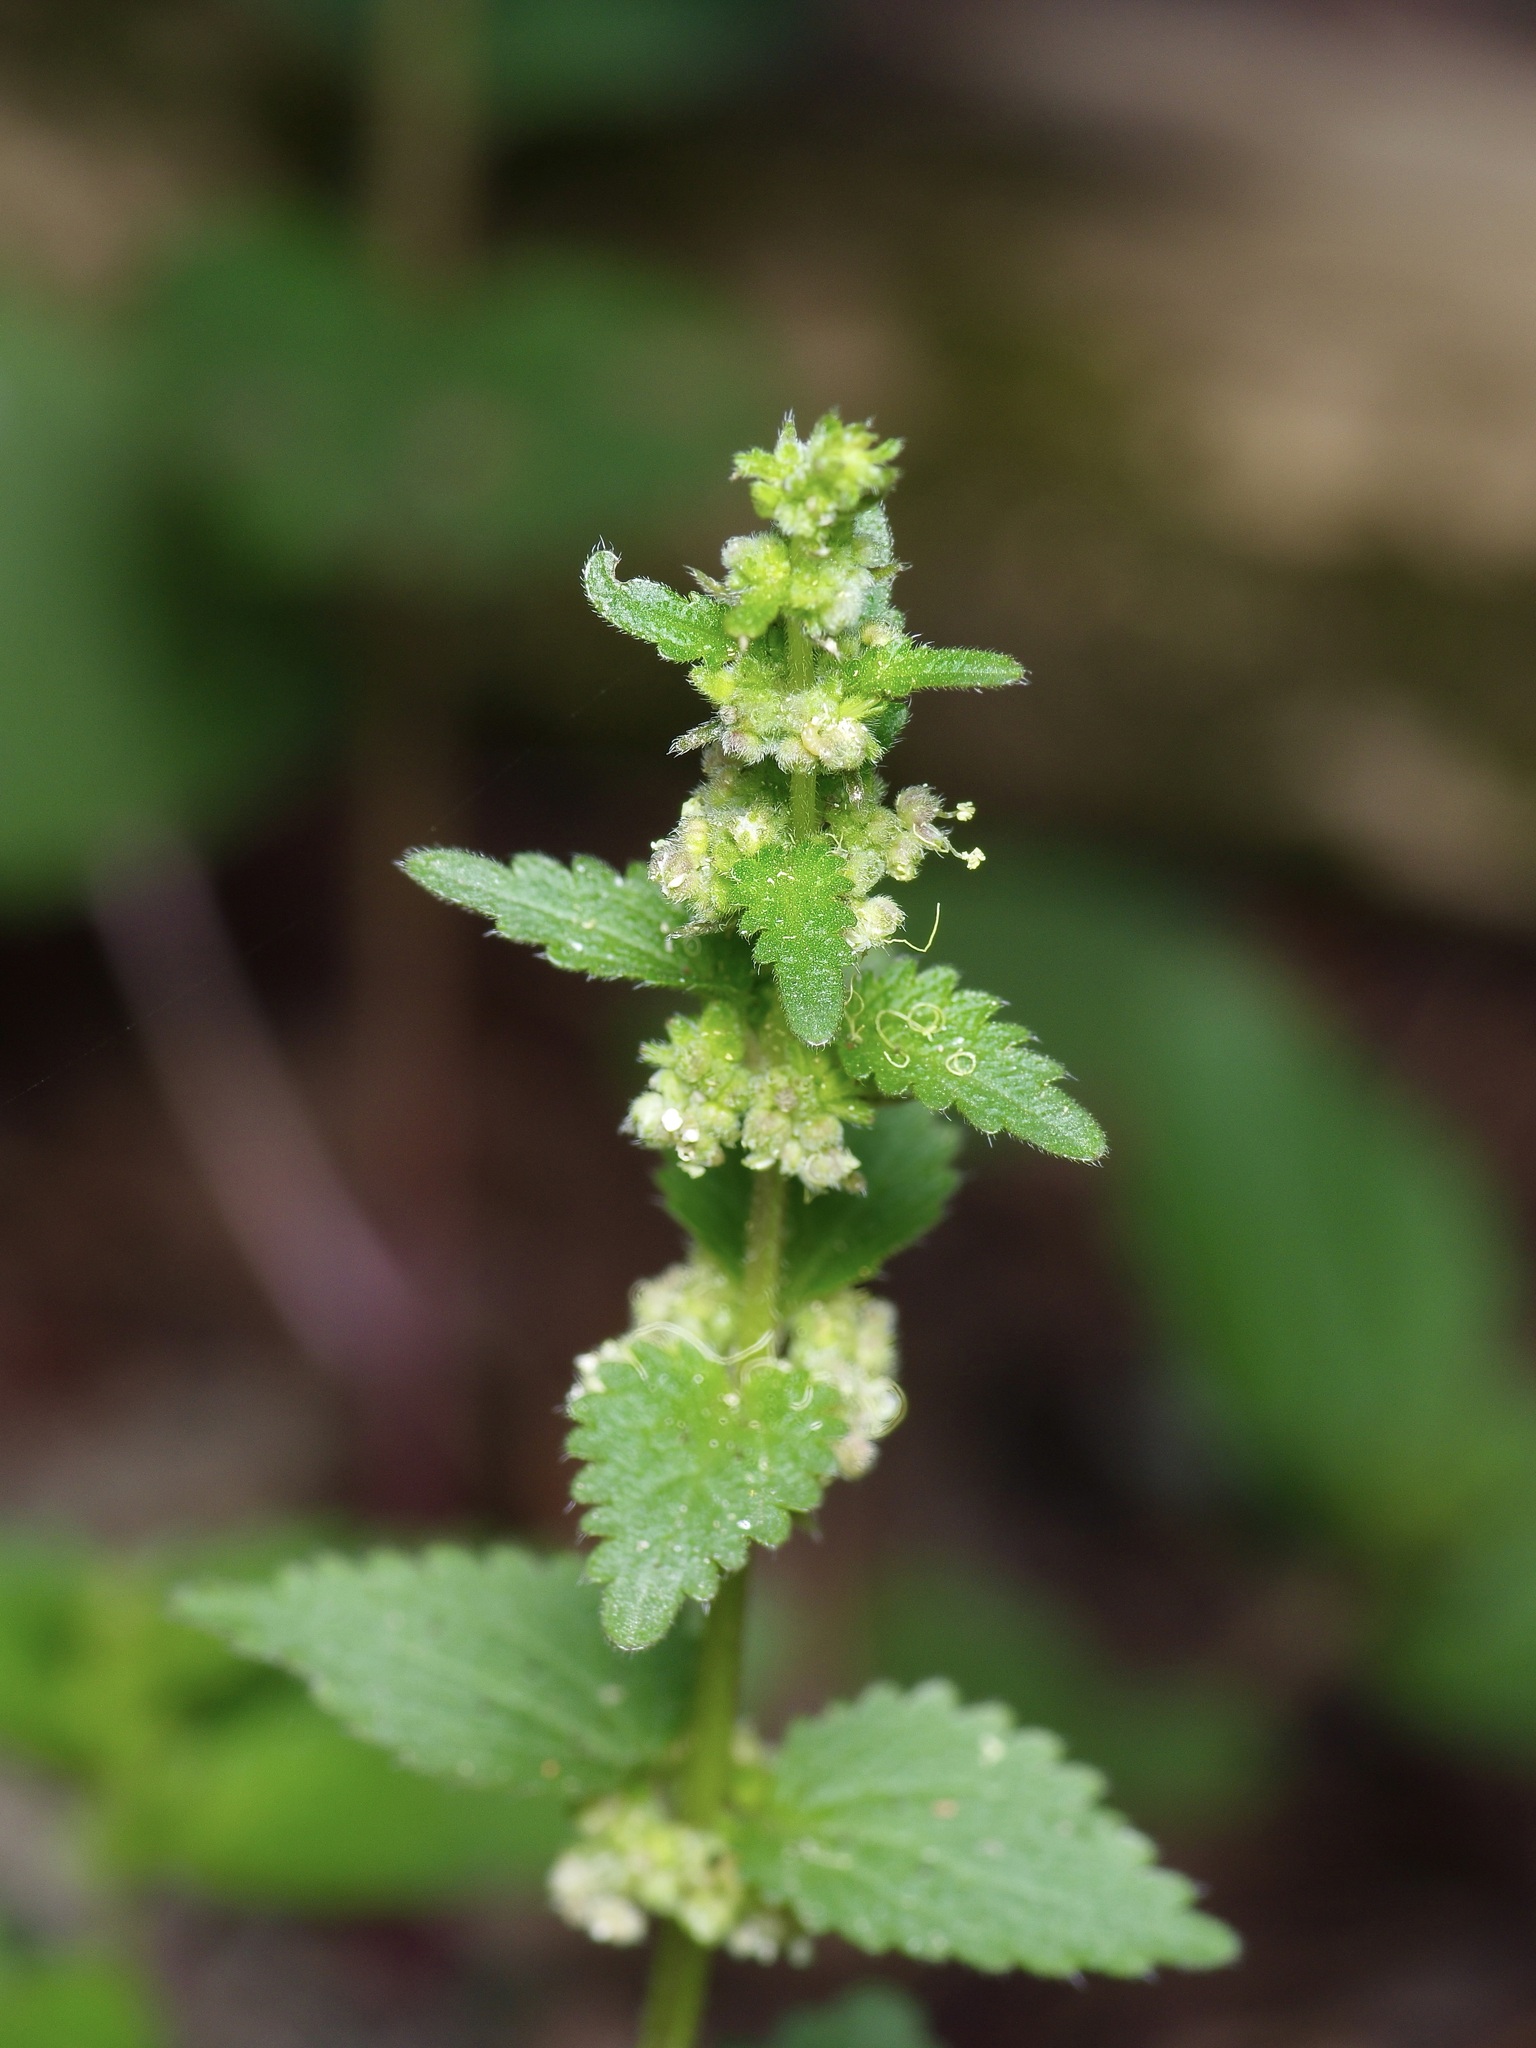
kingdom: Plantae
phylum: Tracheophyta
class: Magnoliopsida
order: Rosales
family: Urticaceae
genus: Urtica
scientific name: Urtica chamaedryoides
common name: Heart-leaf nettle
